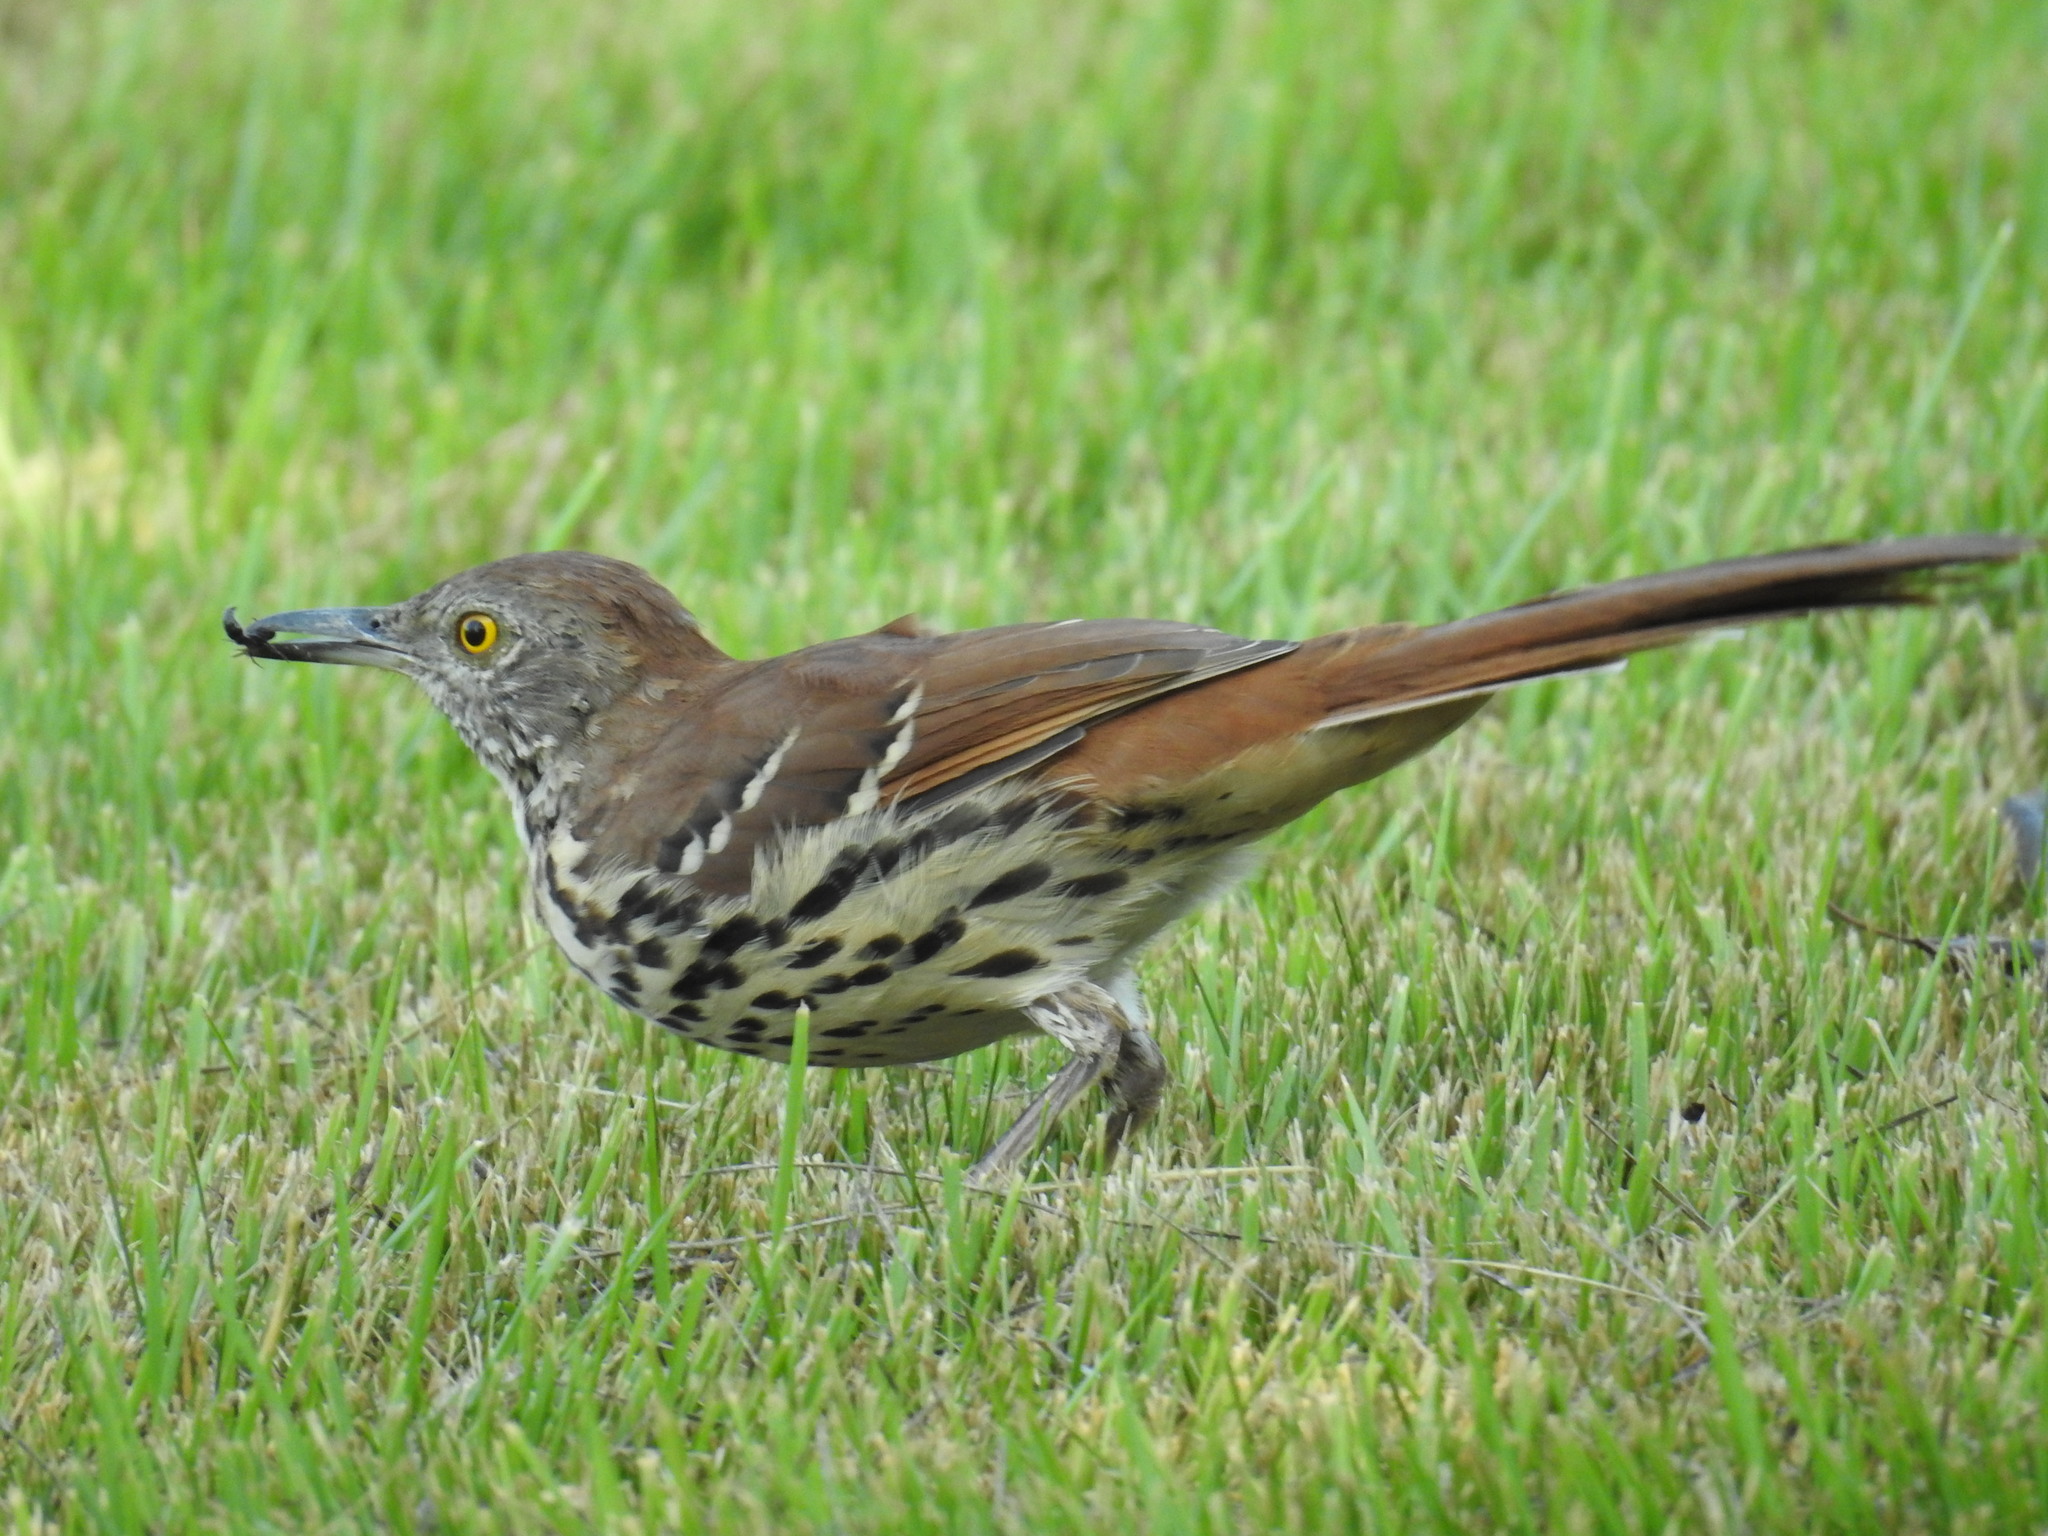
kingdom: Animalia
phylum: Chordata
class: Aves
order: Passeriformes
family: Mimidae
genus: Toxostoma
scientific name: Toxostoma rufum
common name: Brown thrasher
